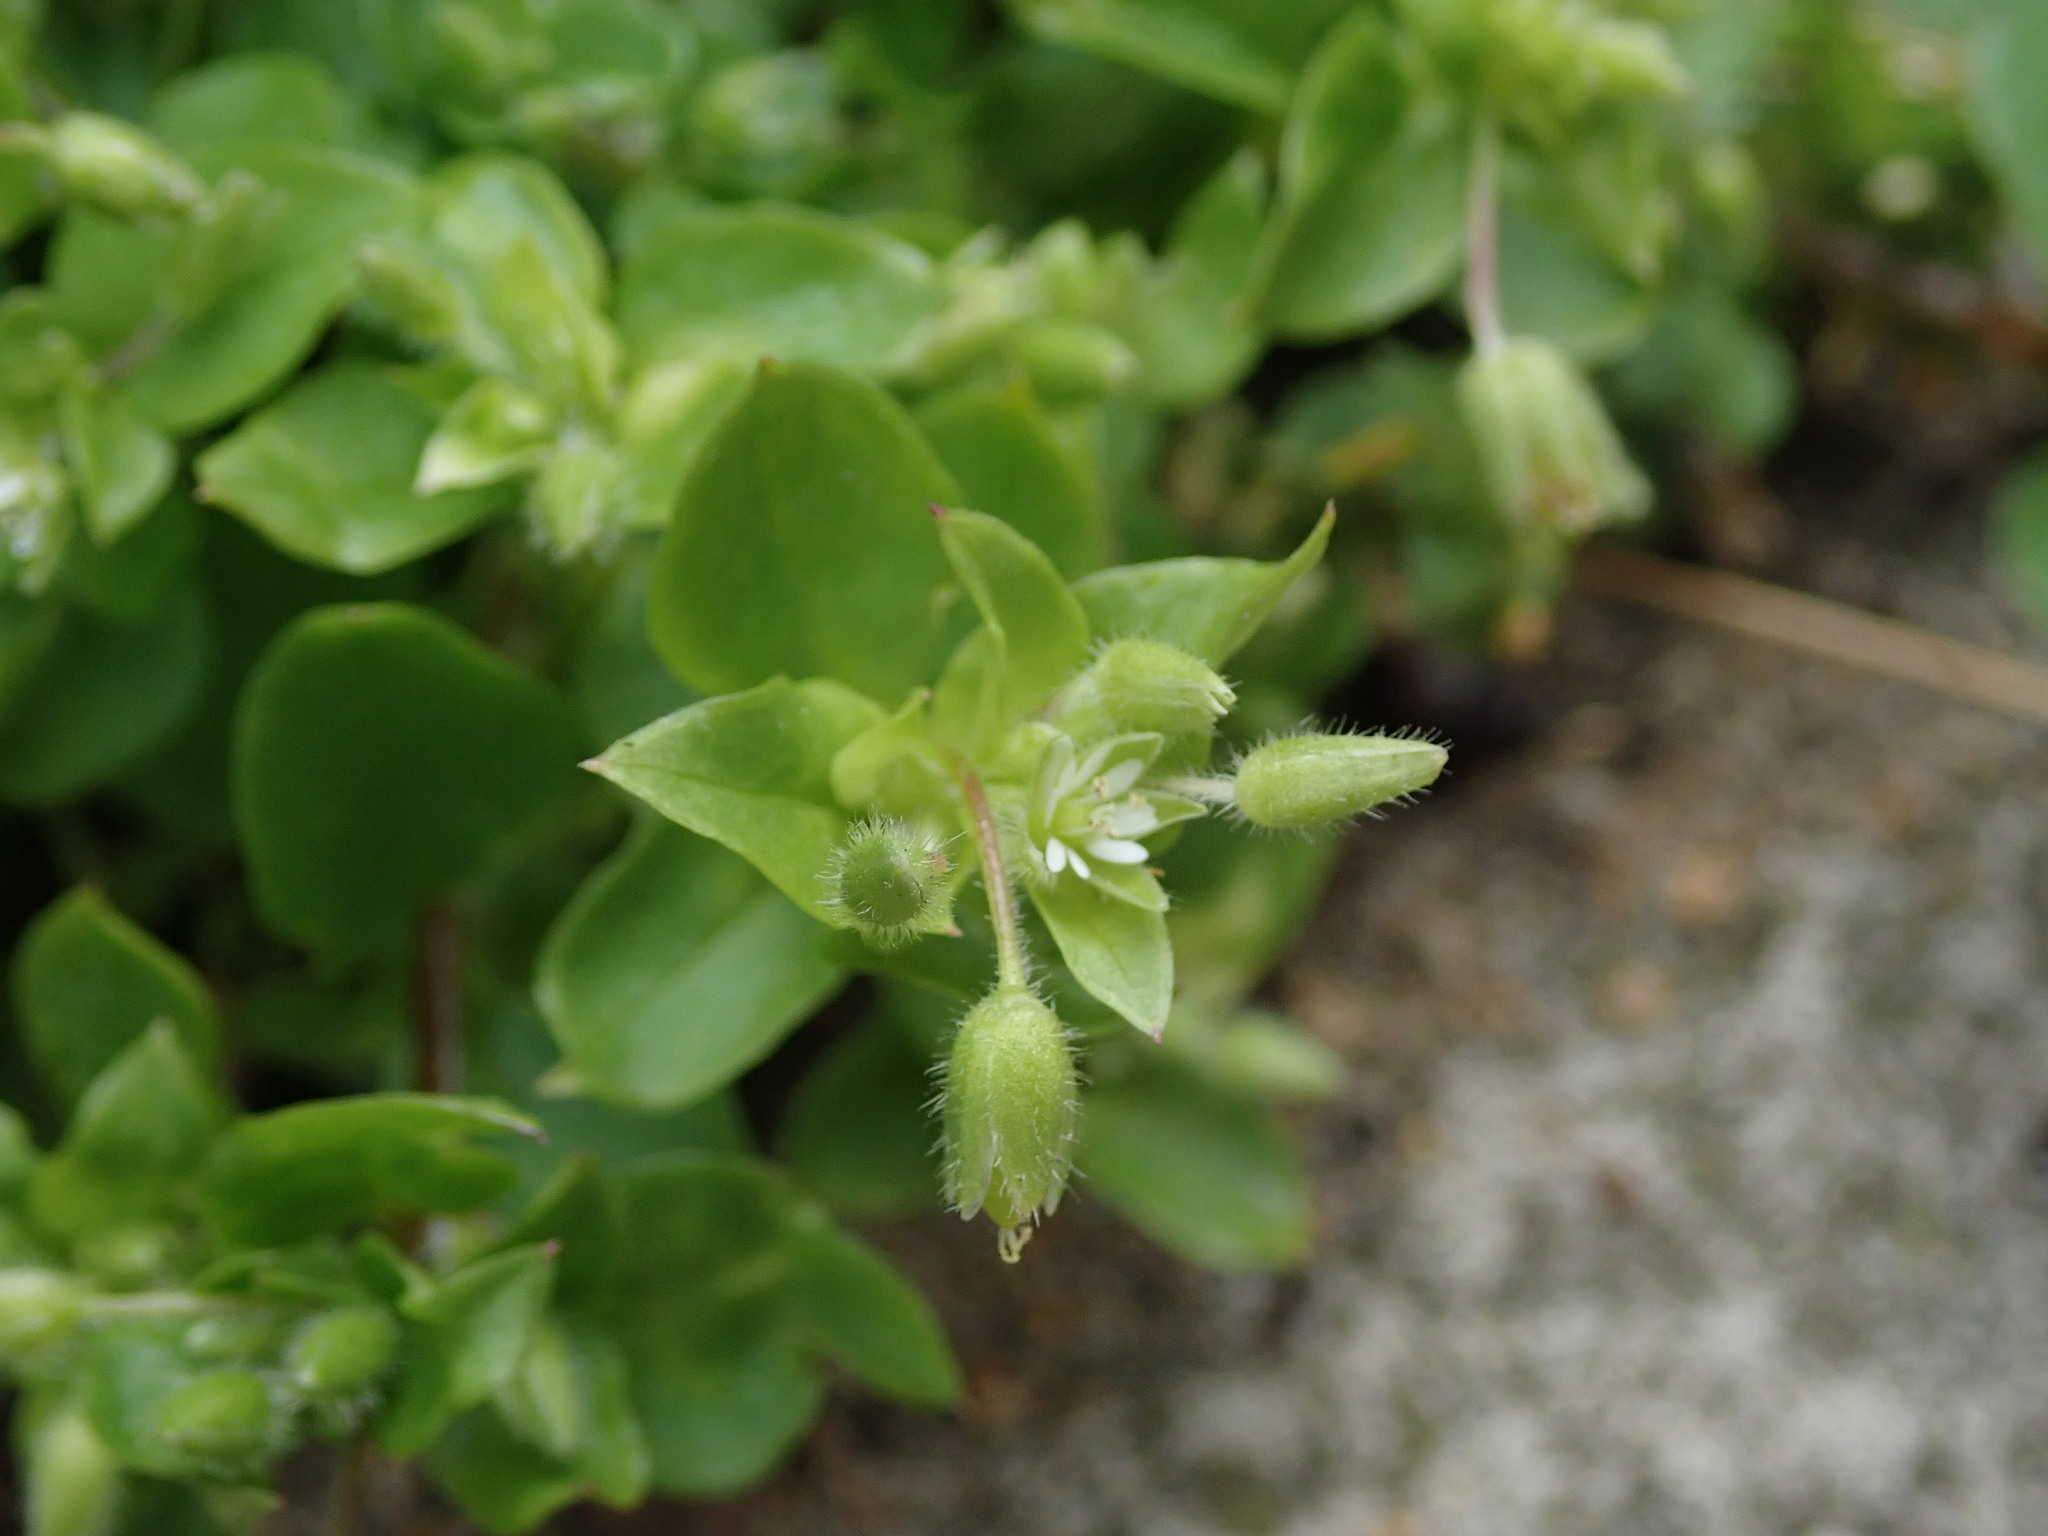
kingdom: Plantae
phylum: Tracheophyta
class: Magnoliopsida
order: Caryophyllales
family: Caryophyllaceae
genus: Stellaria
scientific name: Stellaria media
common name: Common chickweed
